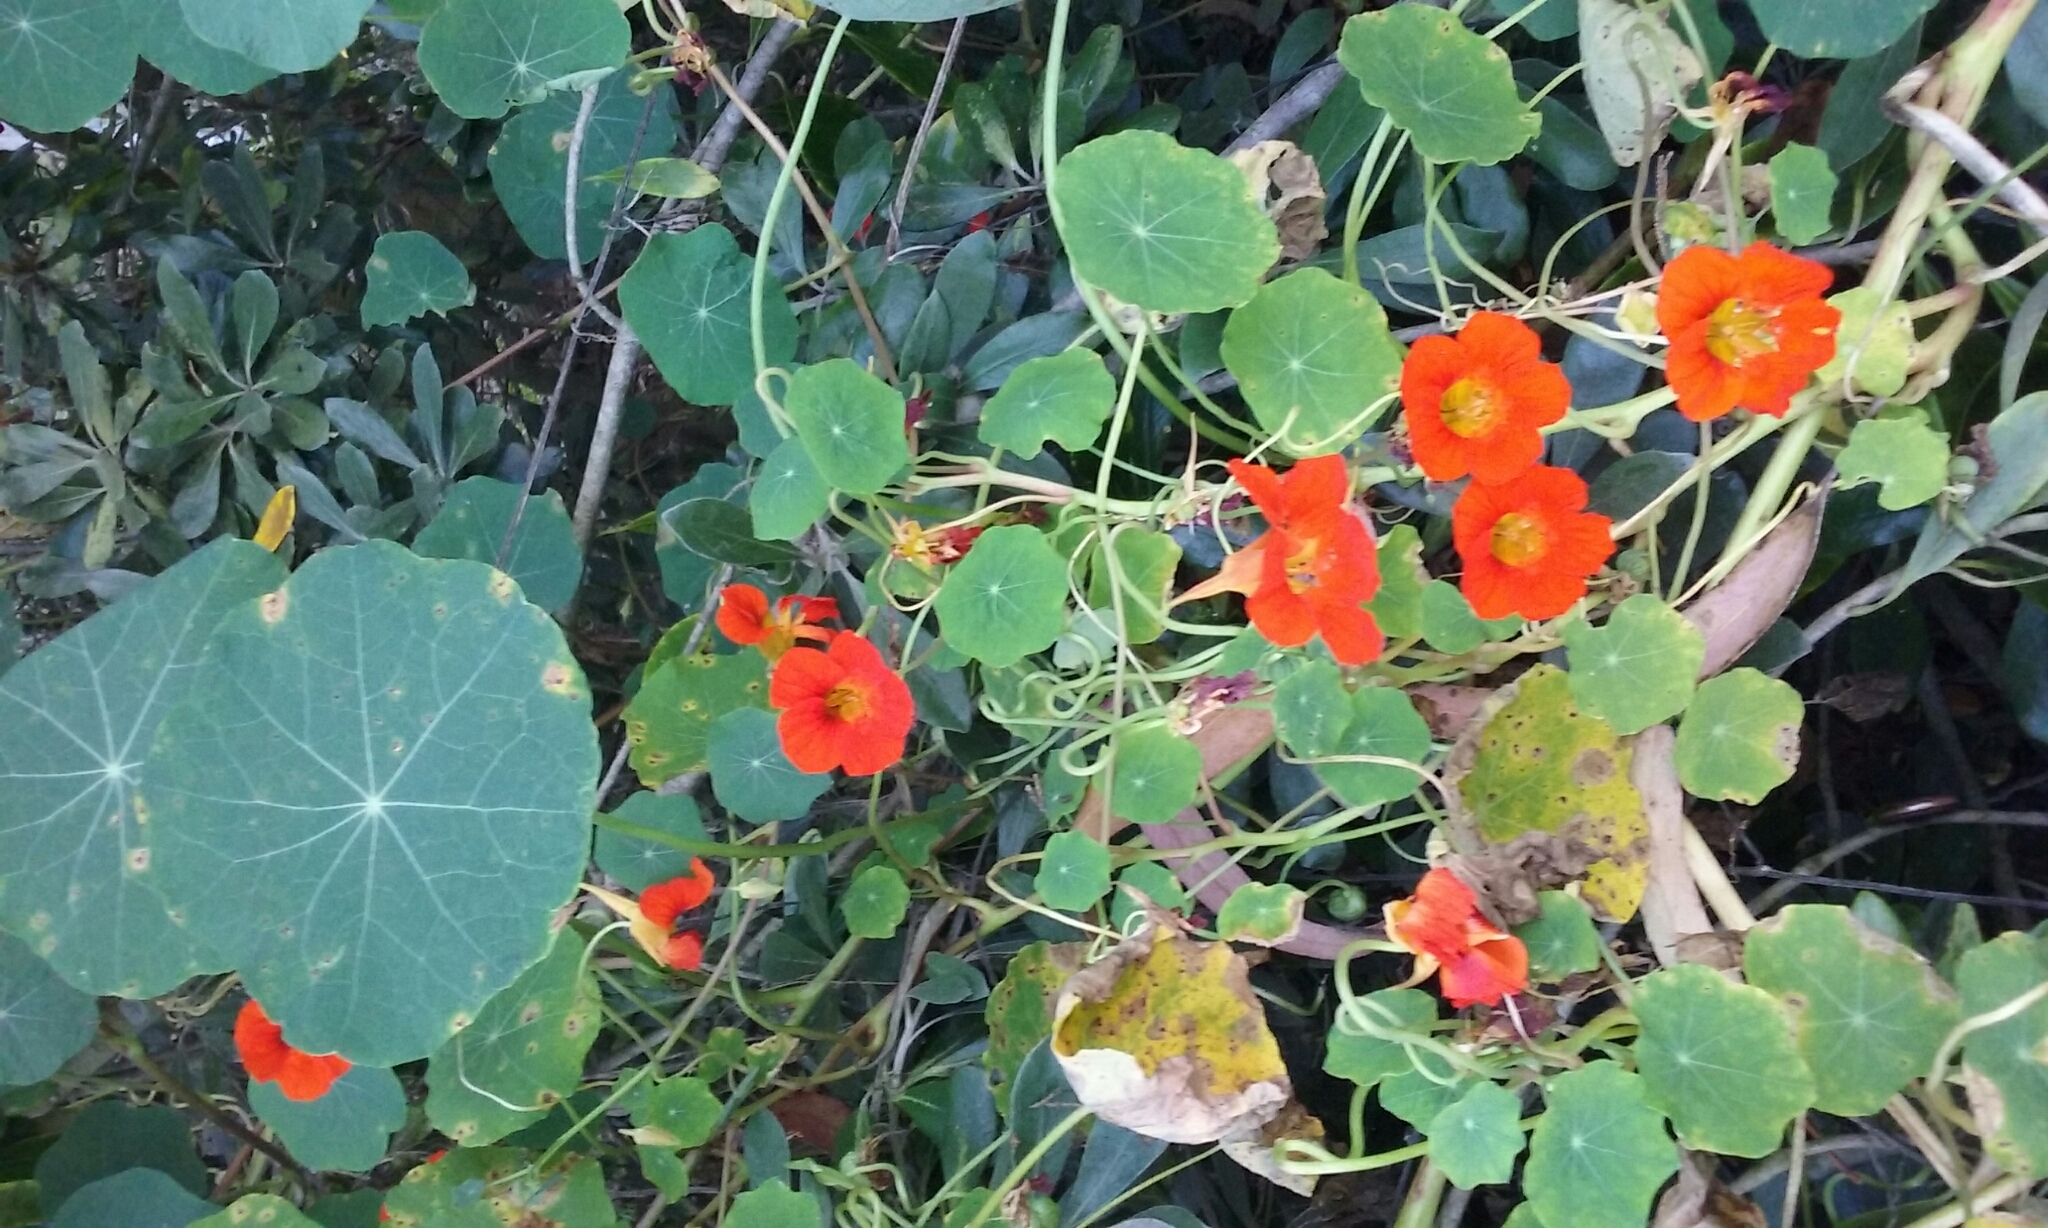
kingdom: Plantae
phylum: Tracheophyta
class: Magnoliopsida
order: Brassicales
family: Tropaeolaceae
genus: Tropaeolum
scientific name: Tropaeolum majus
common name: Nasturtium
